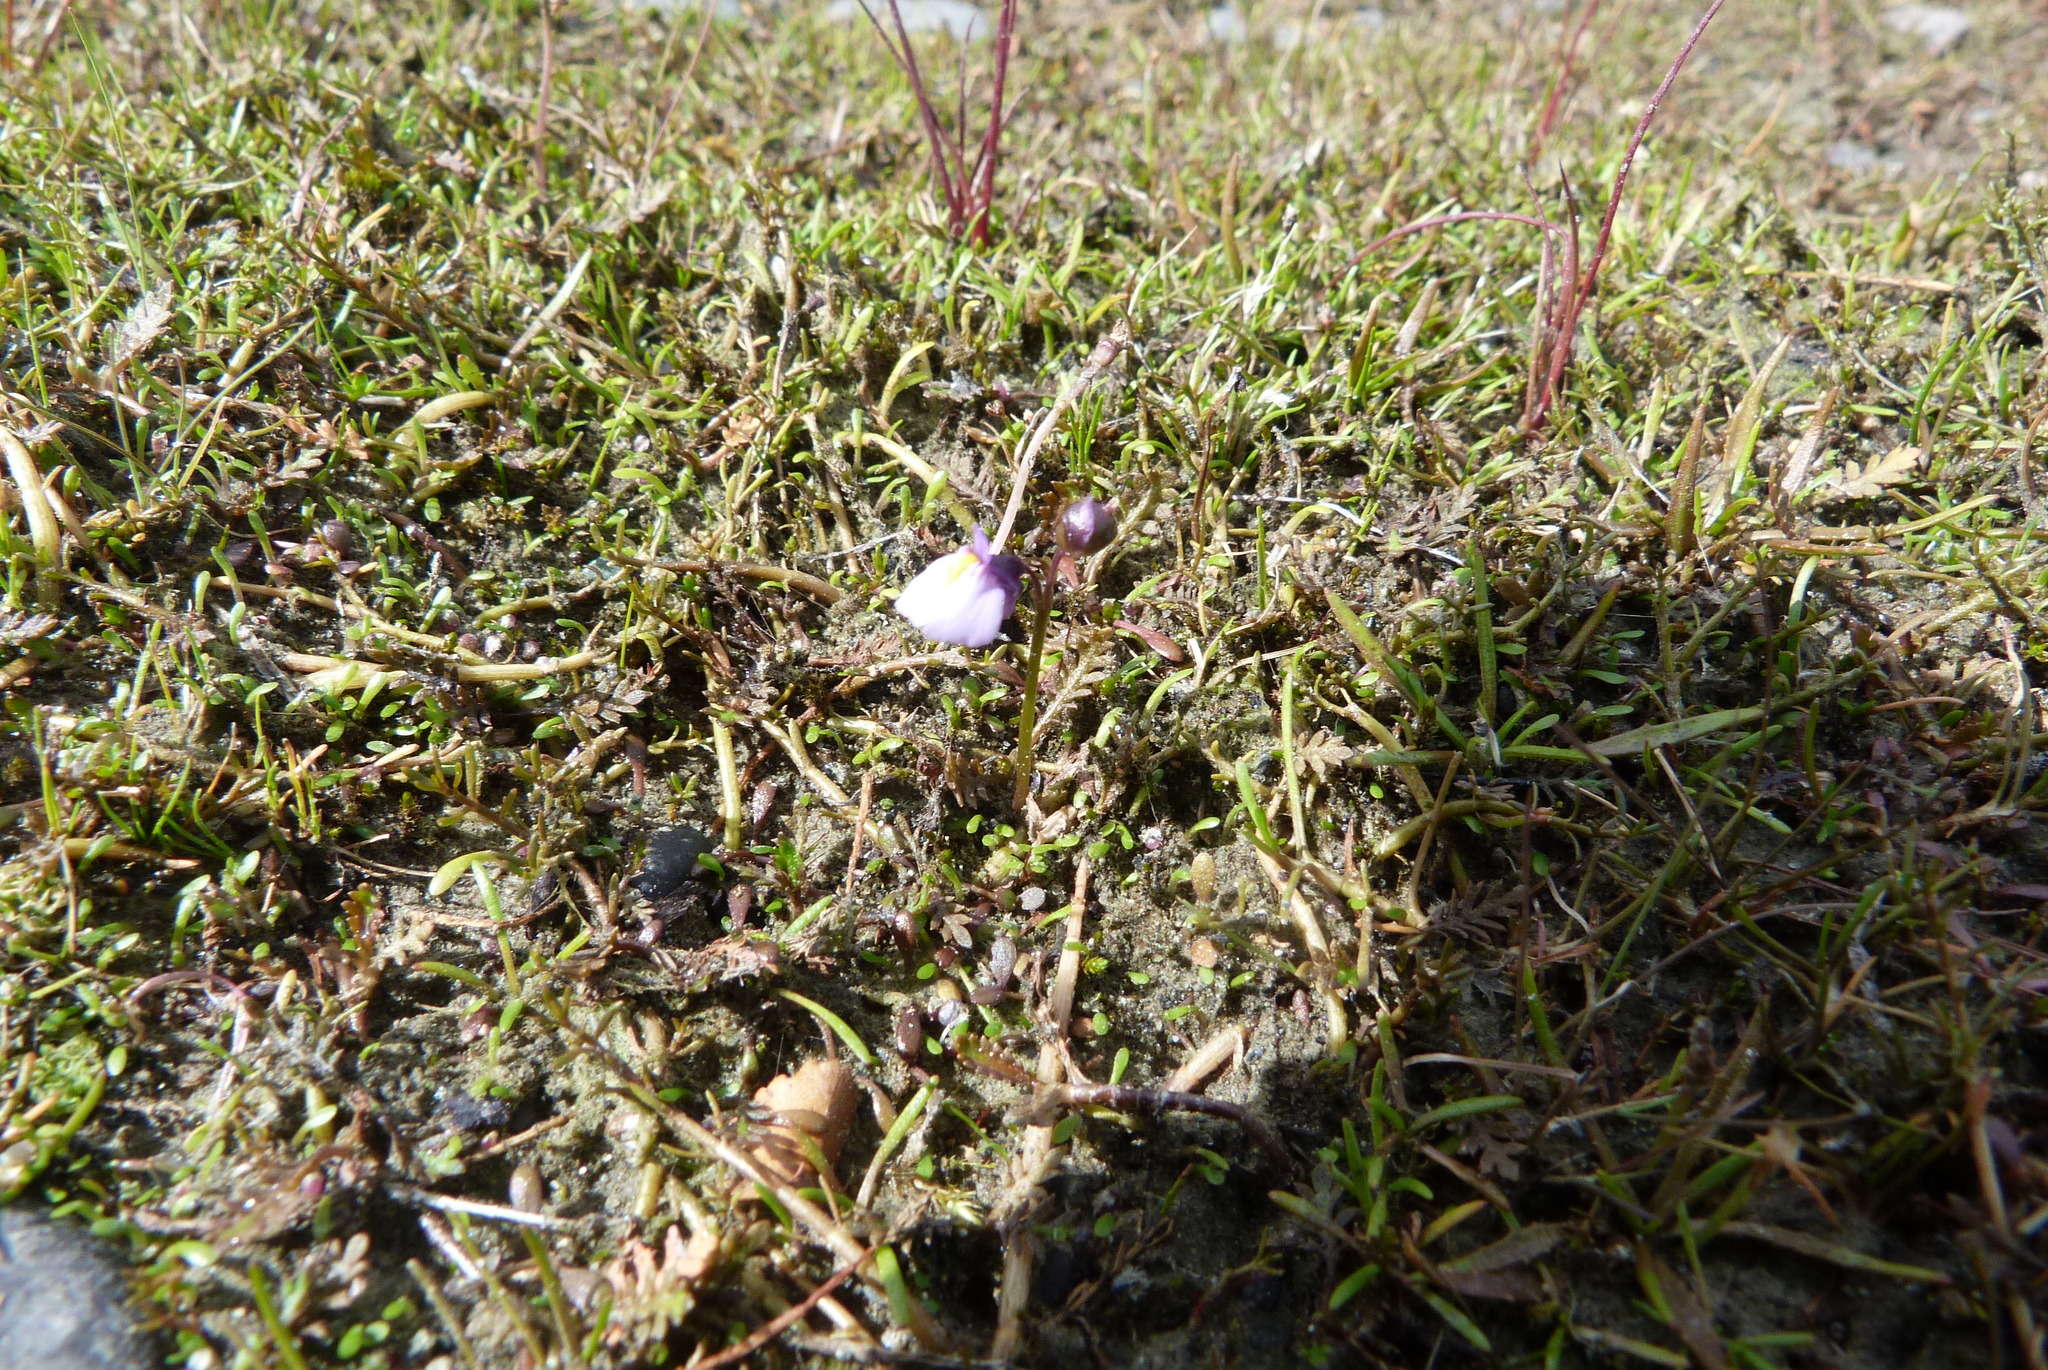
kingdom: Plantae
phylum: Tracheophyta
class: Magnoliopsida
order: Lamiales
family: Lentibulariaceae
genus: Utricularia
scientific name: Utricularia dichotoma
